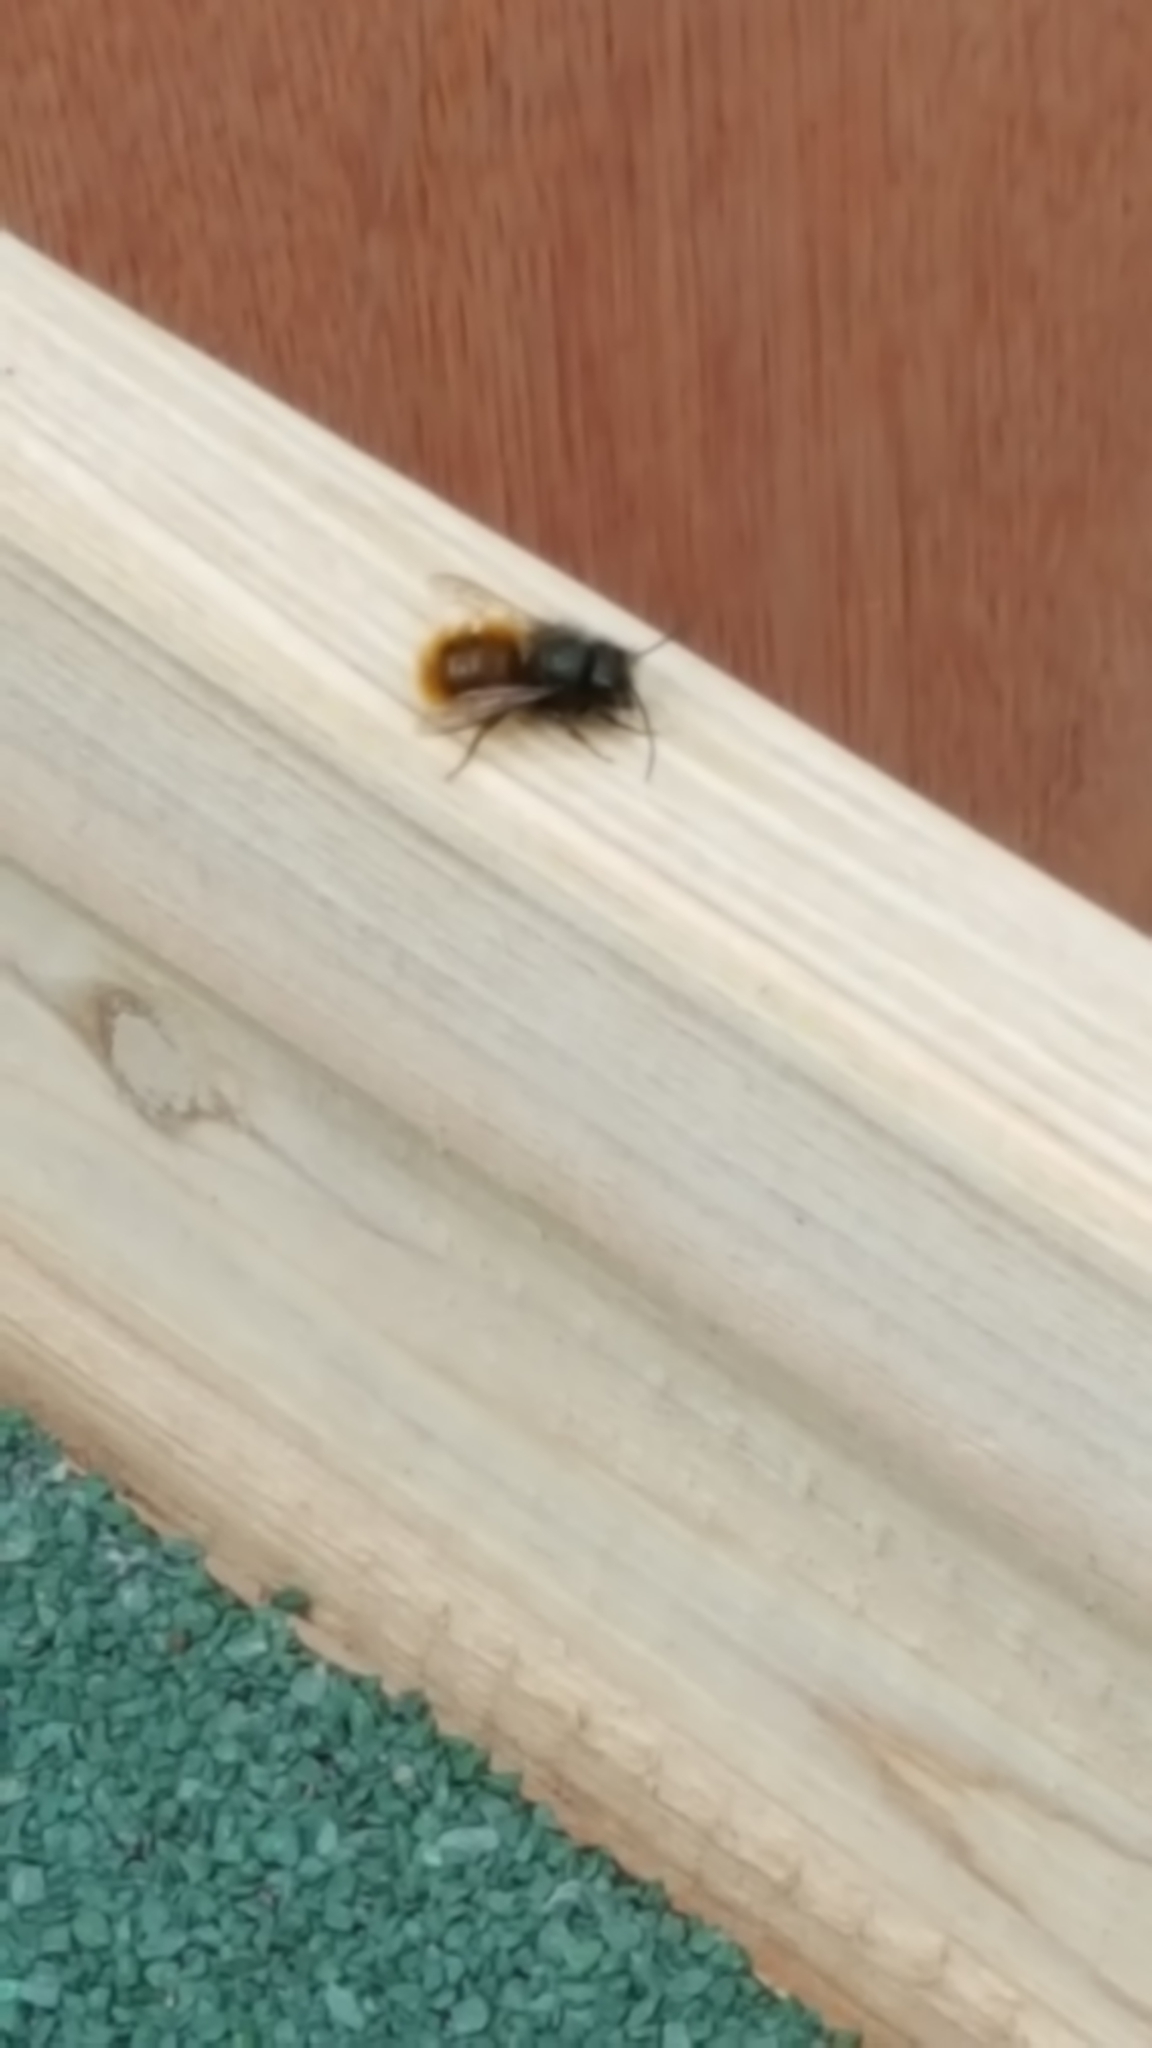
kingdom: Animalia
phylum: Arthropoda
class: Insecta
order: Hymenoptera
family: Megachilidae
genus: Osmia
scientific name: Osmia cornuta
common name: Mason bee
